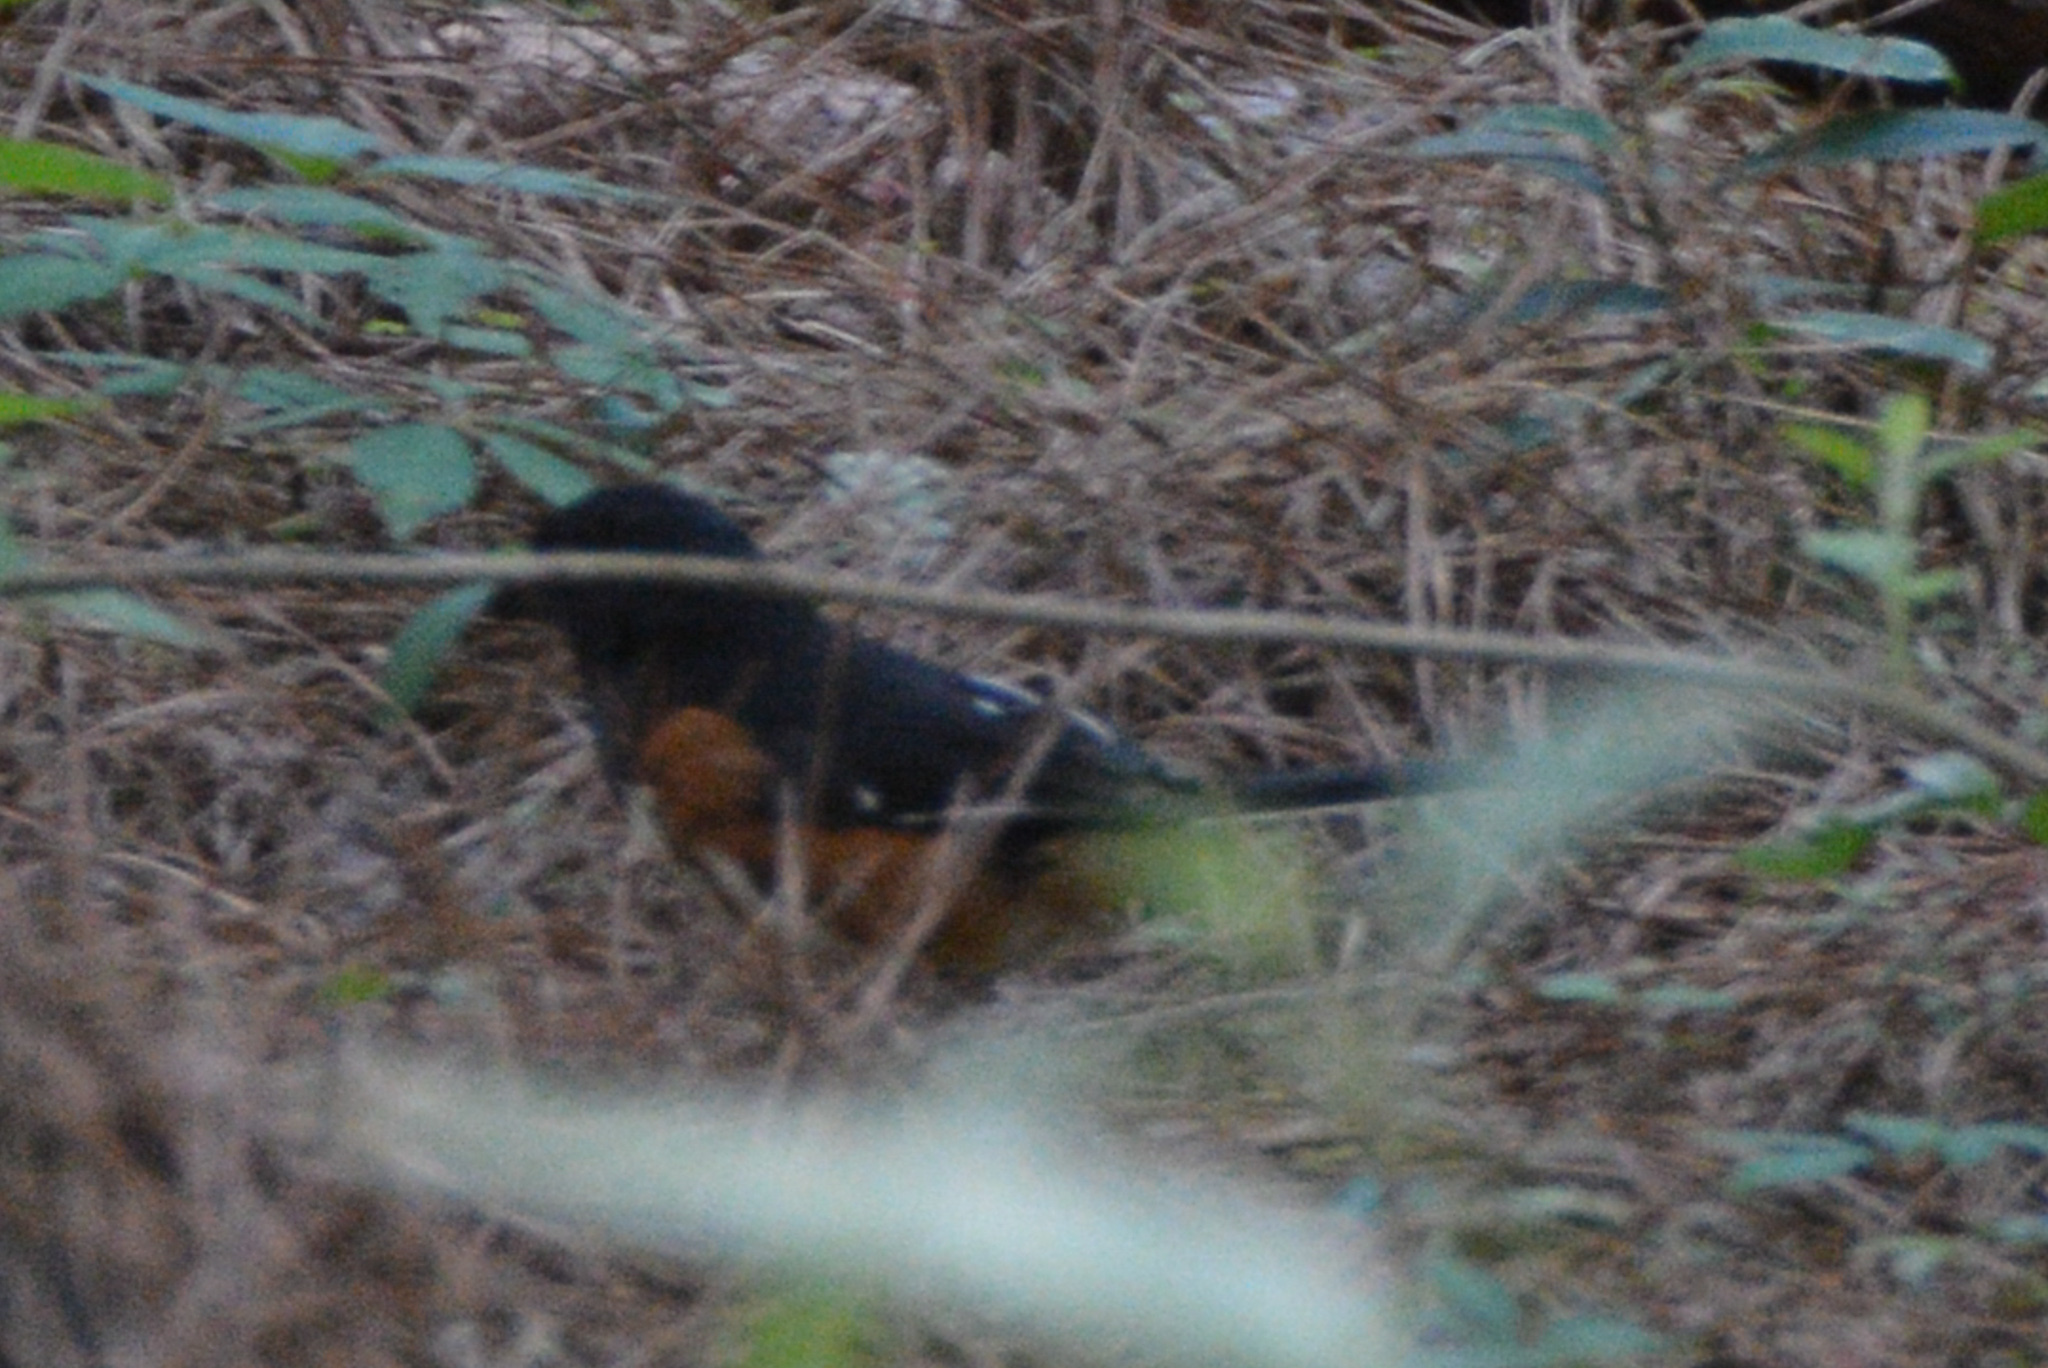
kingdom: Animalia
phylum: Chordata
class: Aves
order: Passeriformes
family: Passerellidae
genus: Pipilo
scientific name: Pipilo erythrophthalmus
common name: Eastern towhee
